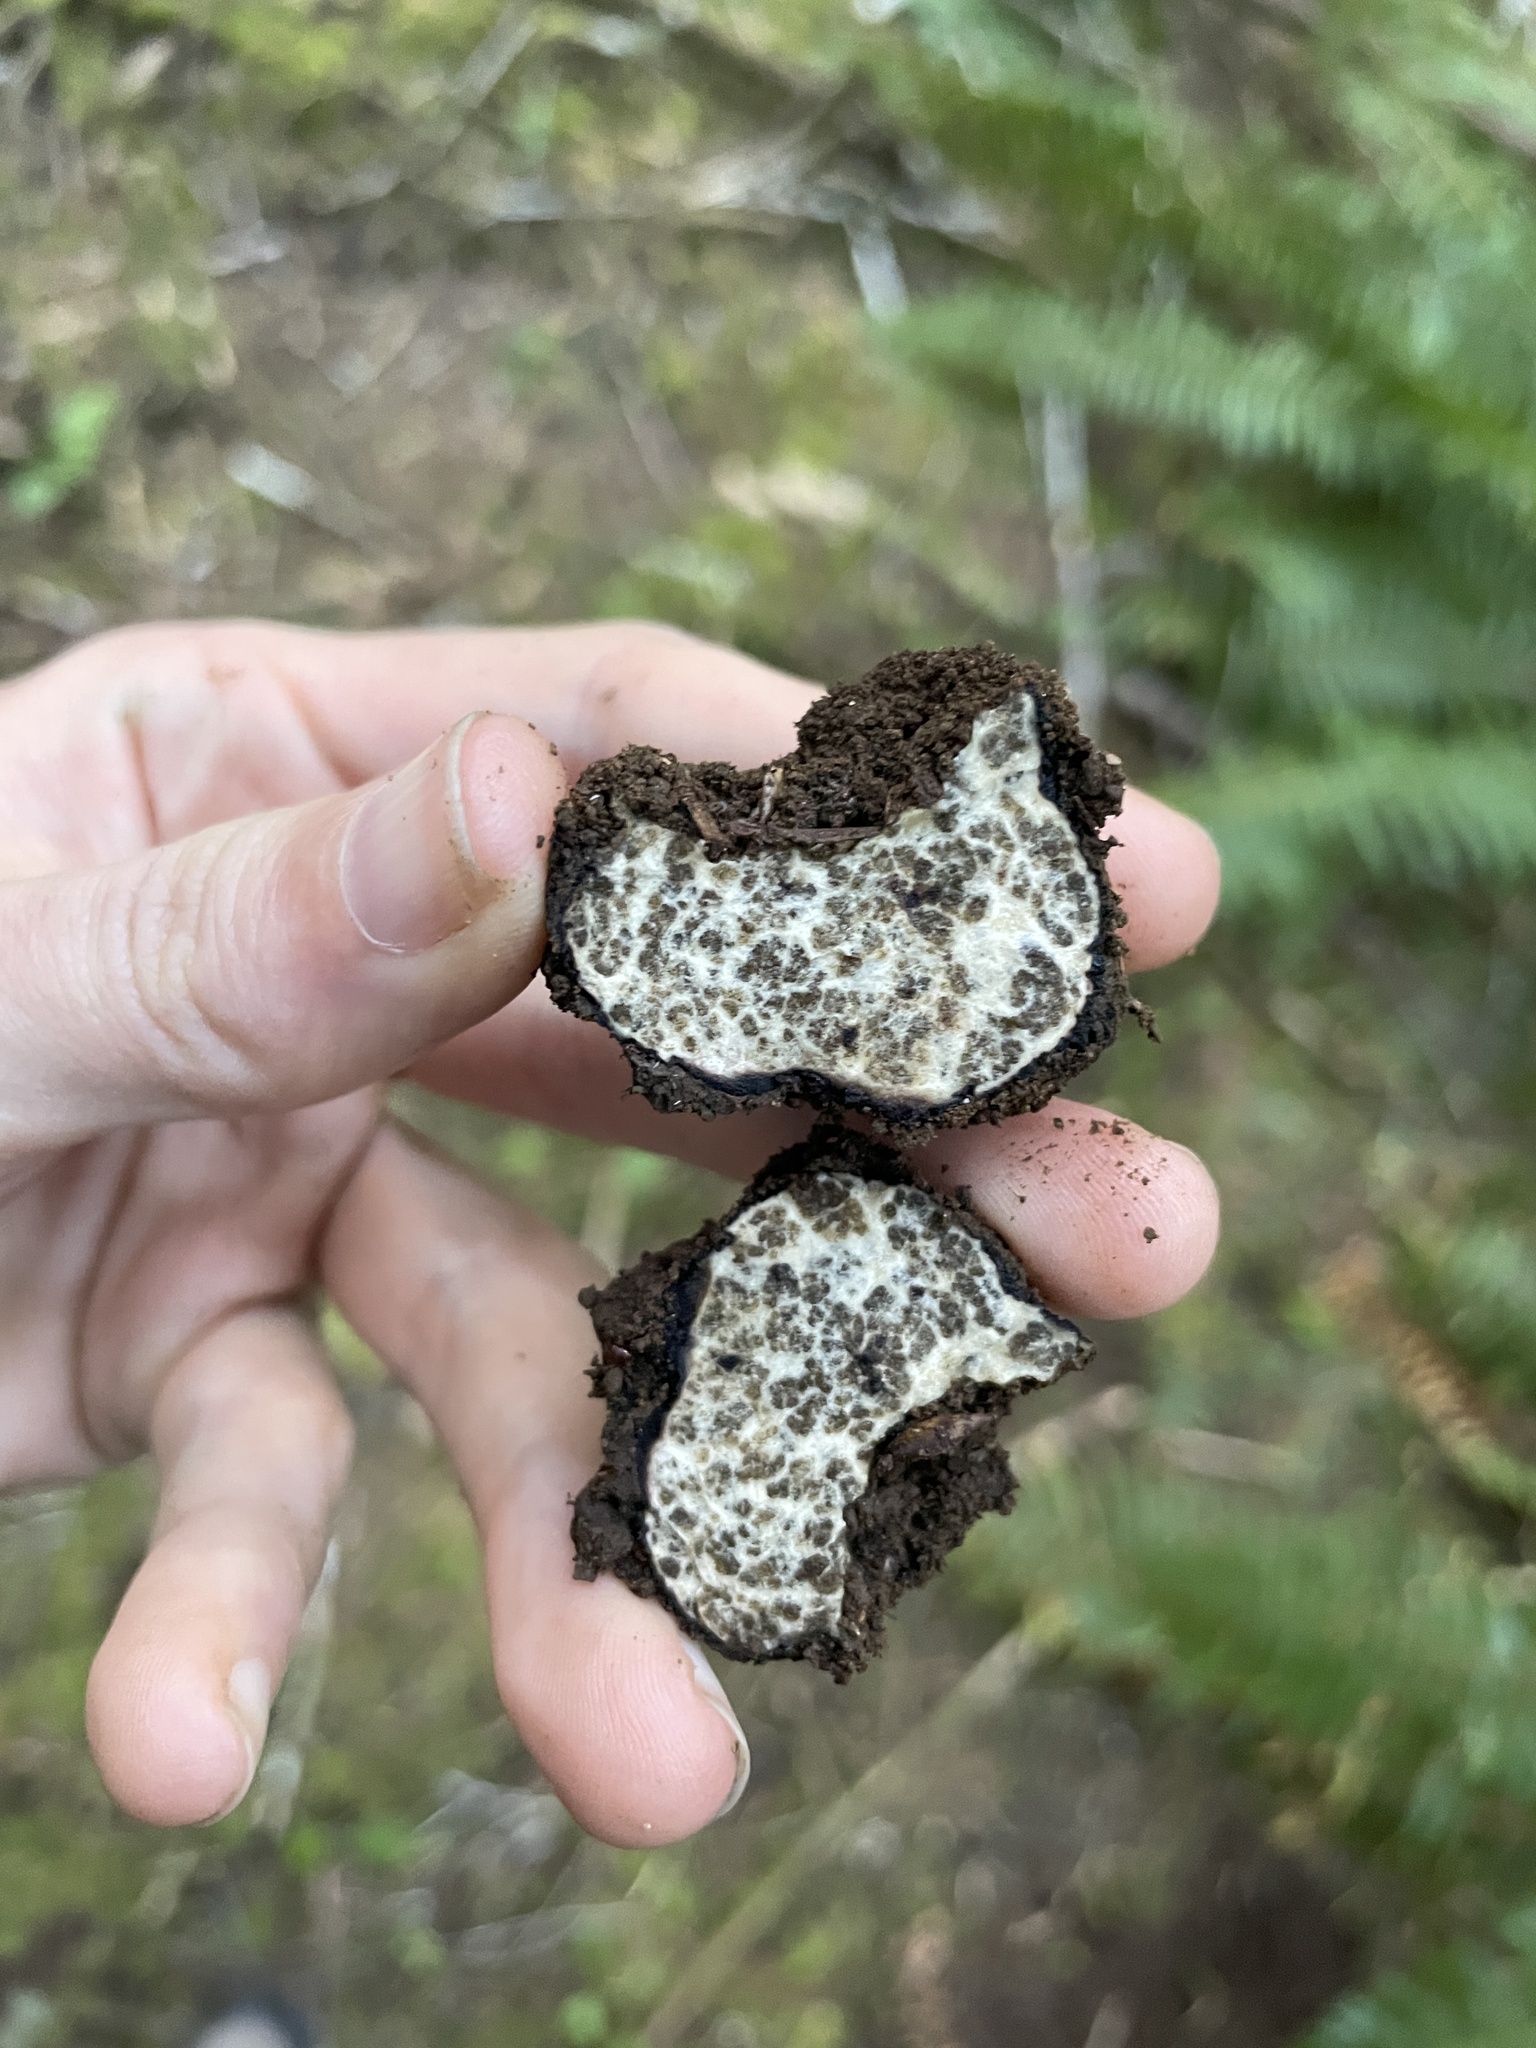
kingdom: Fungi
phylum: Ascomycota
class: Pezizomycetes
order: Pezizales
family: Morchellaceae
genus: Leucangium
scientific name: Leucangium carthusianum
